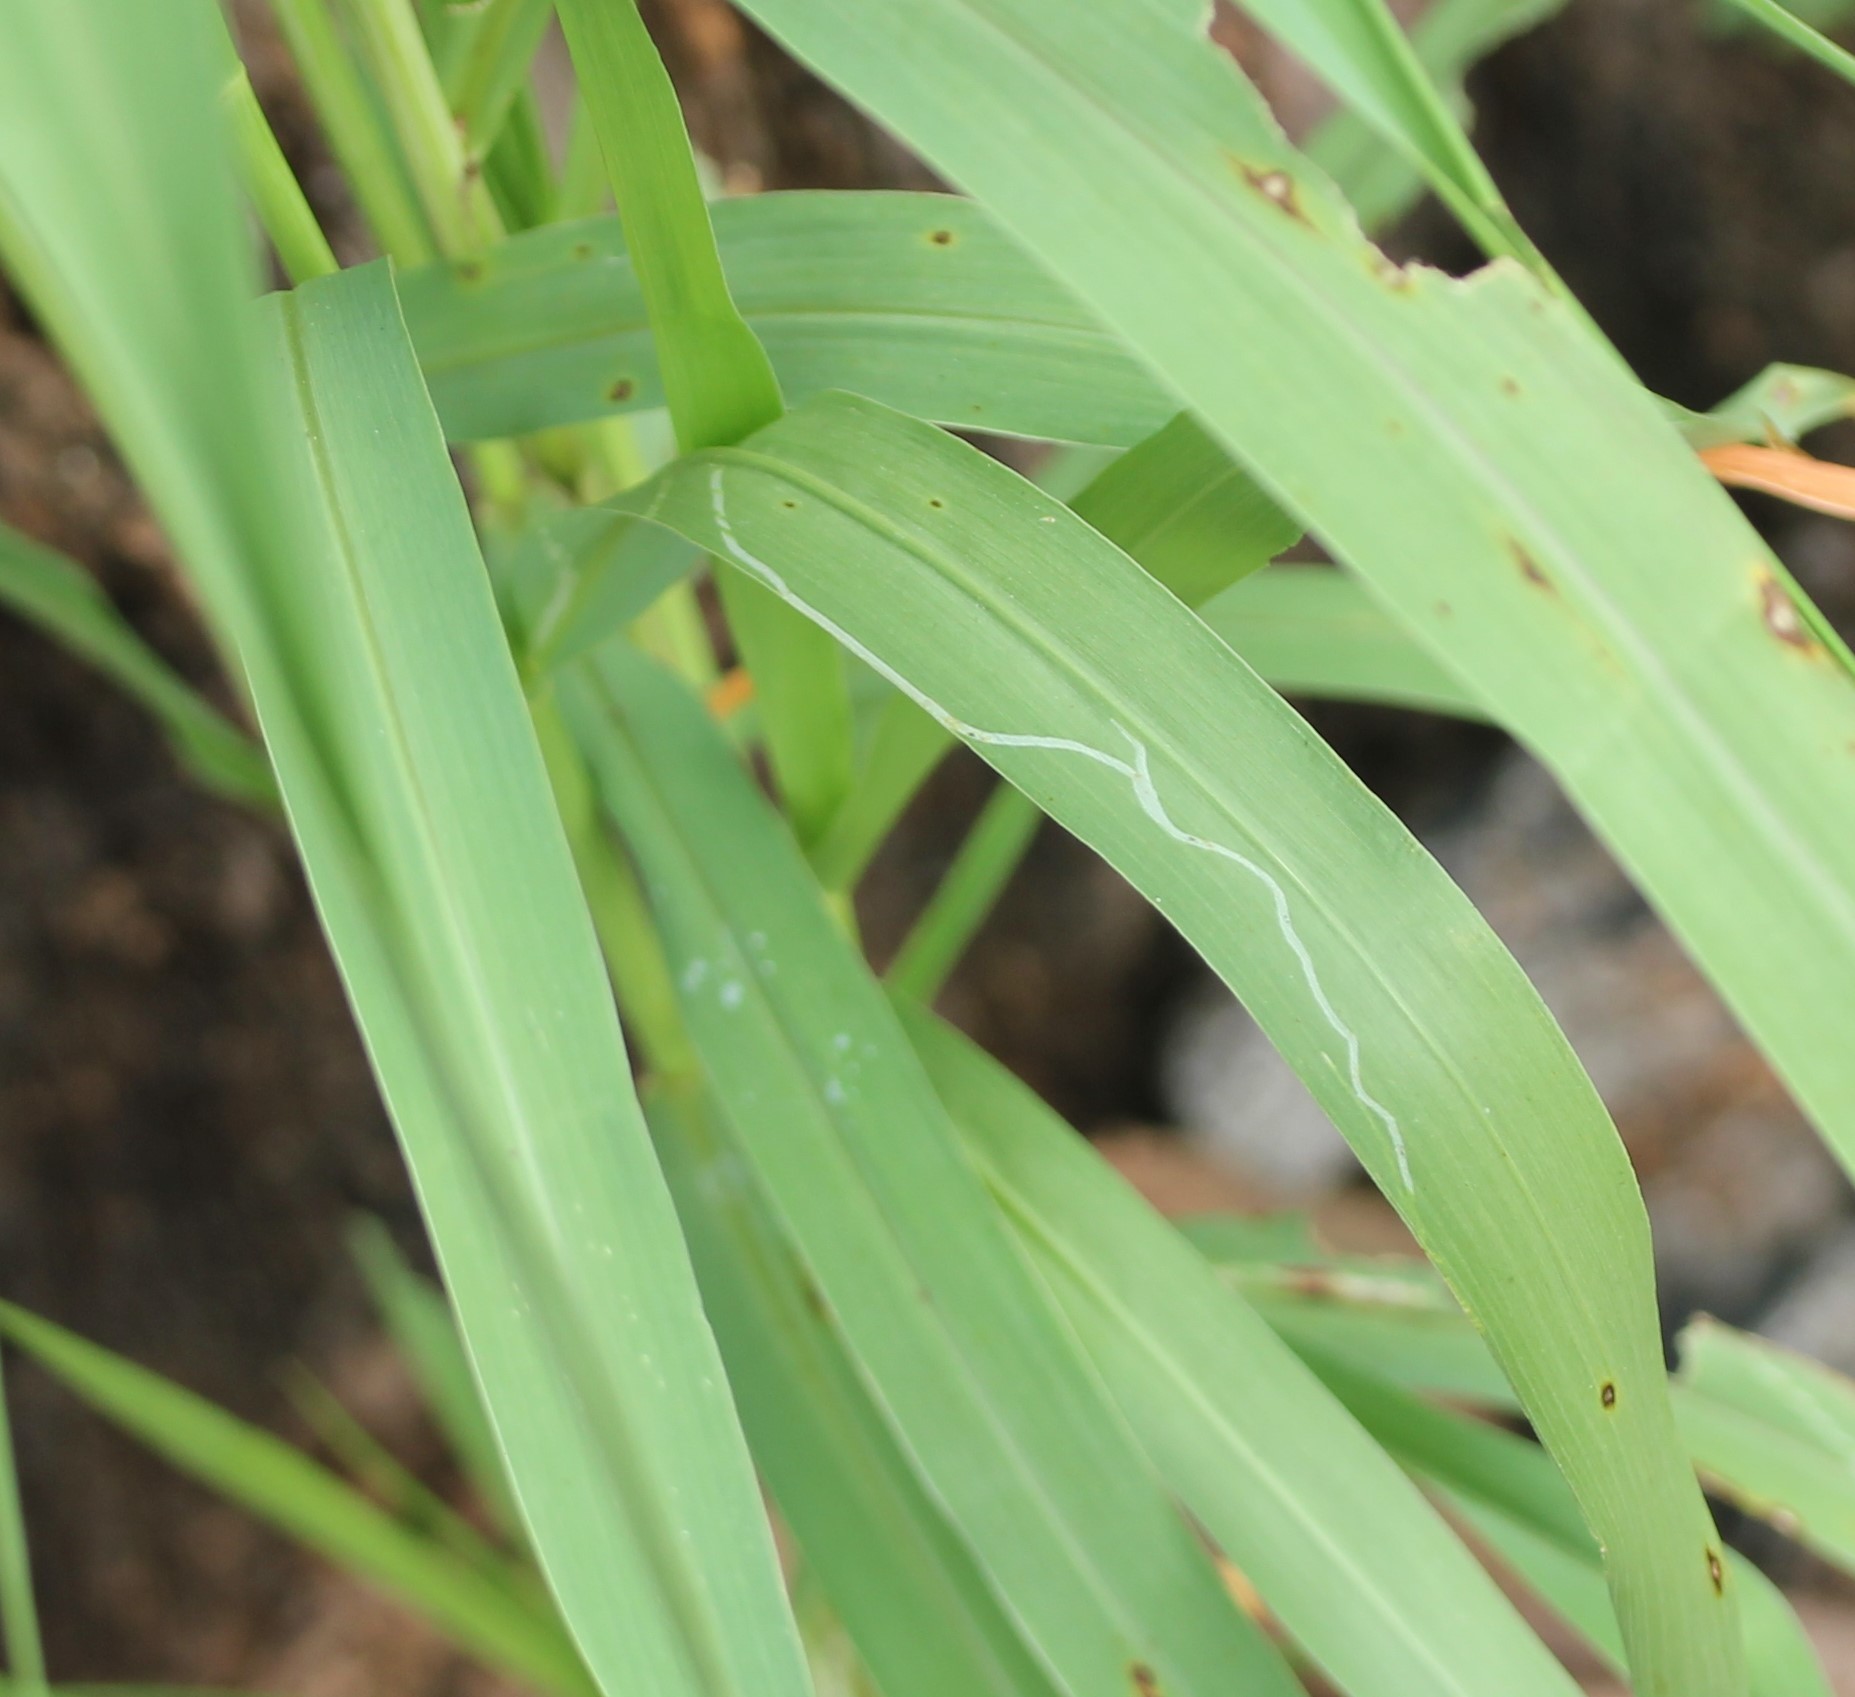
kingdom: Animalia
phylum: Arthropoda
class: Insecta
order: Diptera
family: Agromyzidae
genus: Cerodontha
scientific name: Cerodontha dorsalis
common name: Grass sheathminer fly
